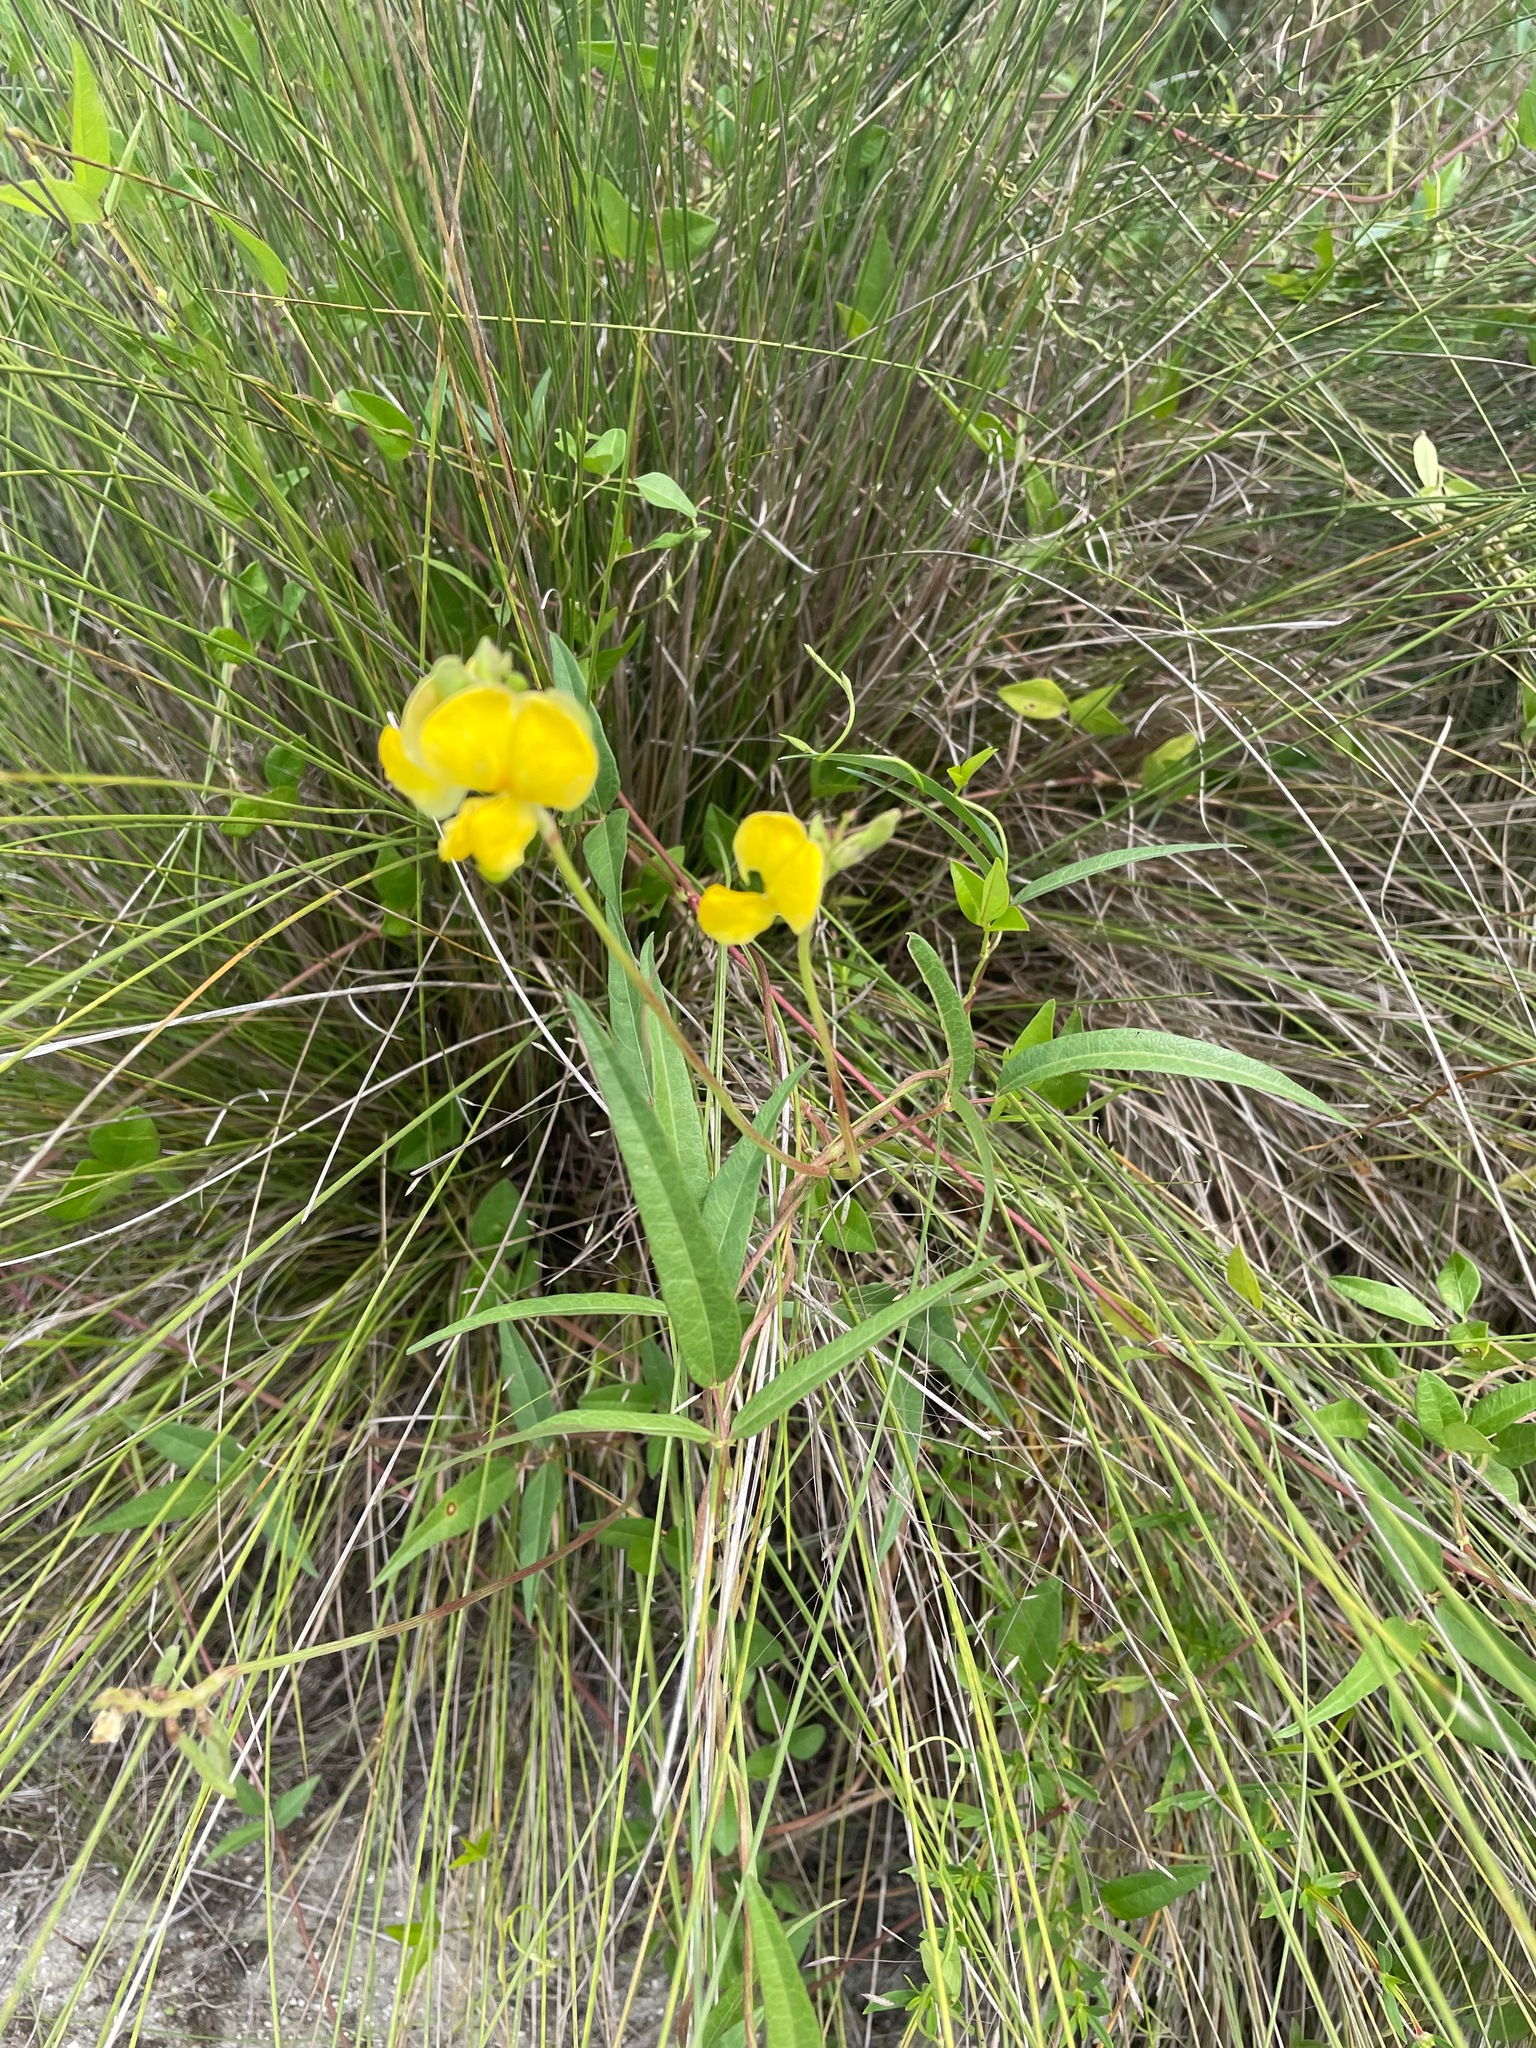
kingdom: Plantae
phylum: Tracheophyta
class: Magnoliopsida
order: Fabales
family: Fabaceae
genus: Vigna
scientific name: Vigna luteola
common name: Hairypod cowpea
